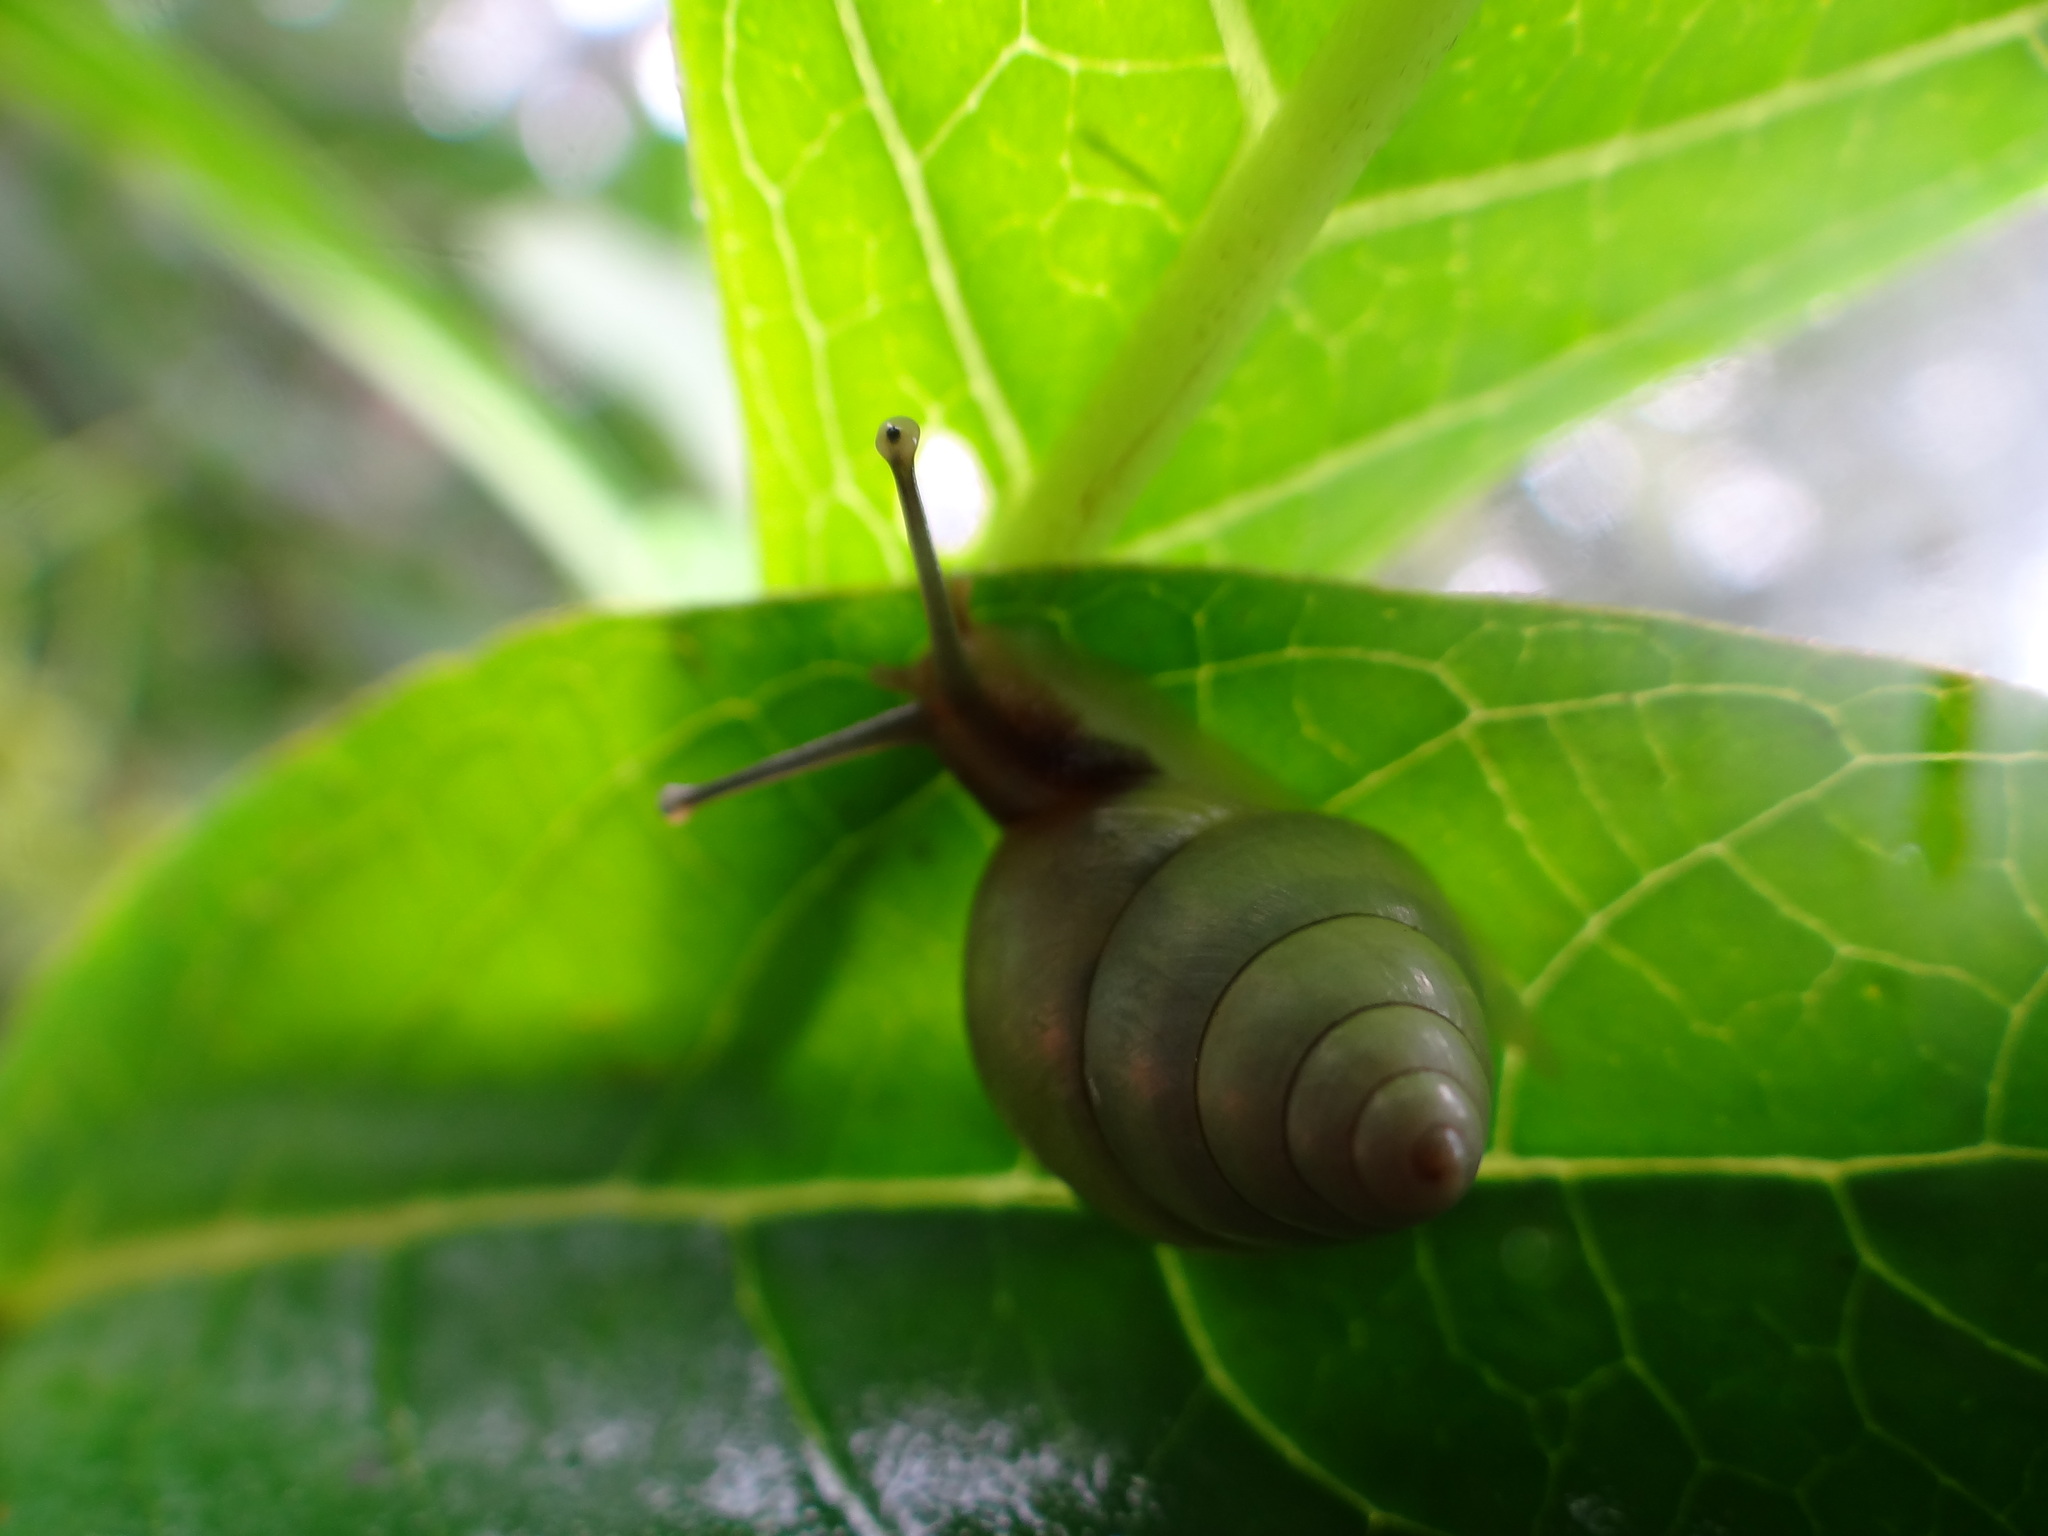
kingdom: Animalia
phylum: Mollusca
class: Gastropoda
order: Stylommatophora
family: Camaenidae
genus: Satsuma
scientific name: Satsuma huberi
